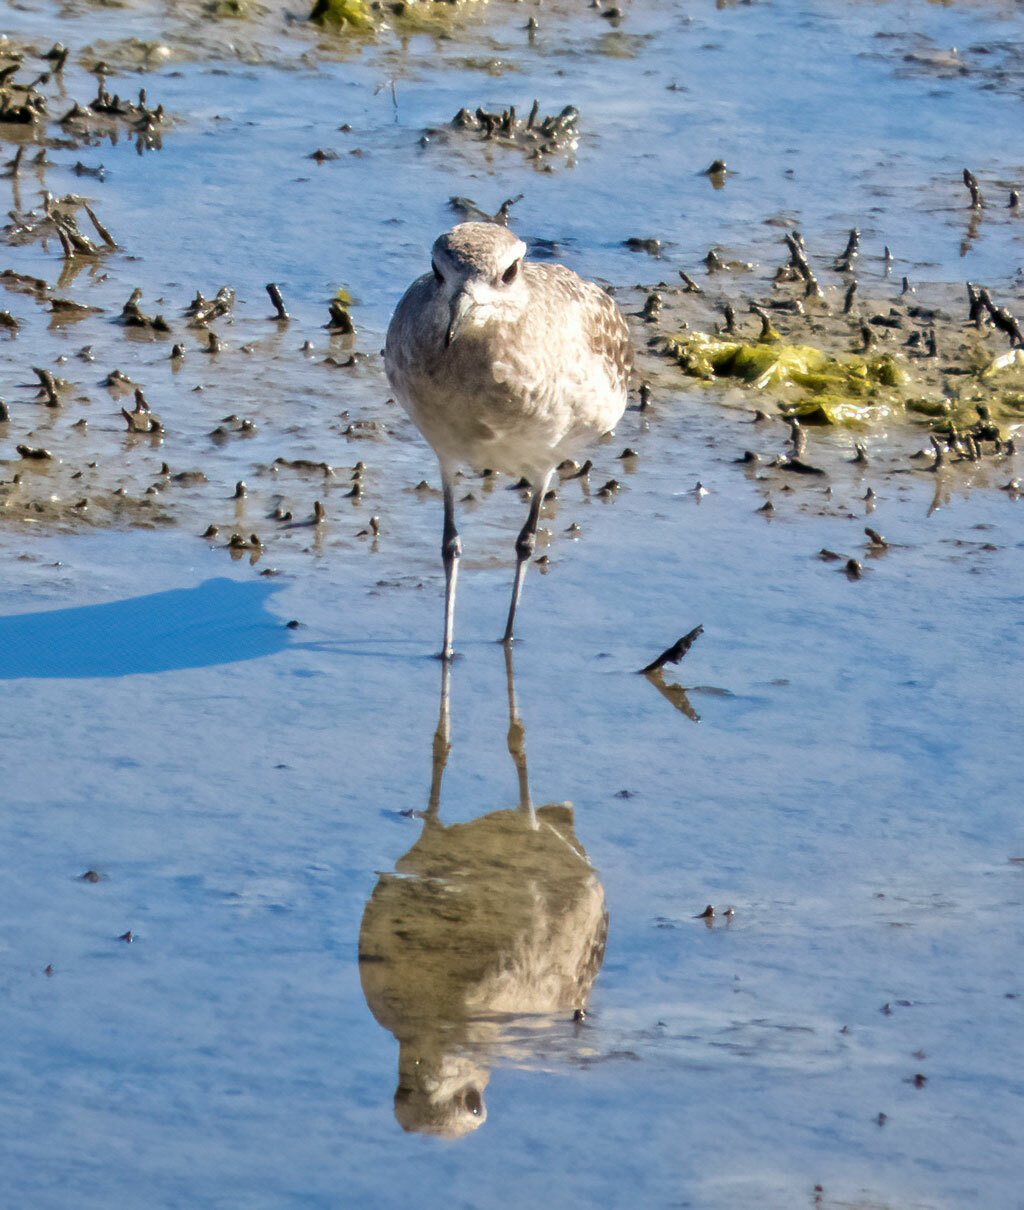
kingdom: Animalia
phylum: Chordata
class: Aves
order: Charadriiformes
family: Charadriidae
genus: Pluvialis
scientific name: Pluvialis squatarola
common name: Grey plover
